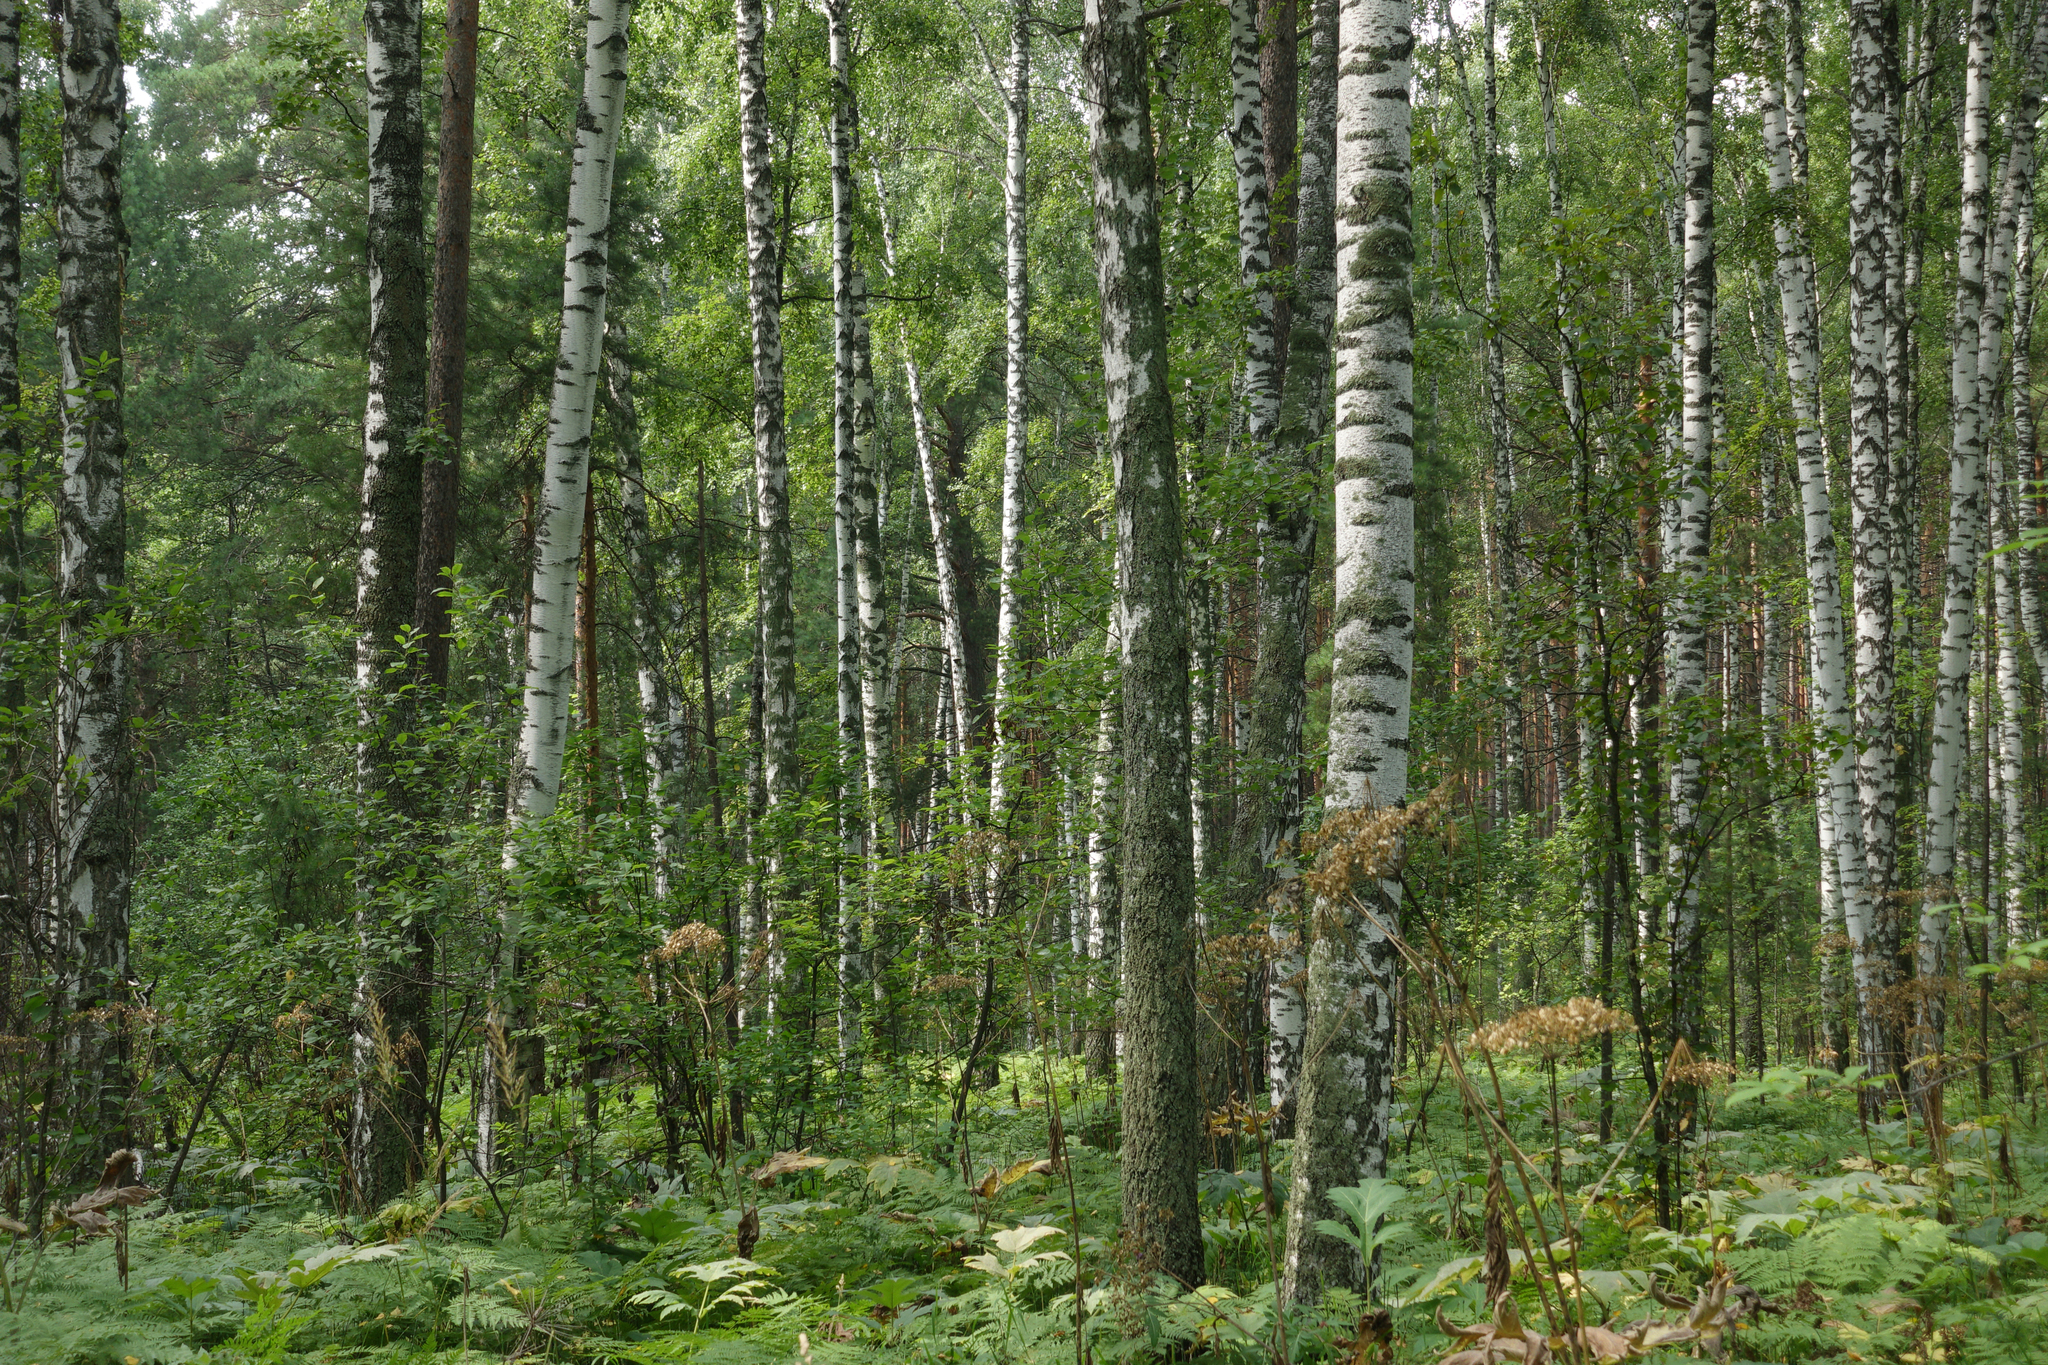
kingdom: Plantae
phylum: Tracheophyta
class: Magnoliopsida
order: Fagales
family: Betulaceae
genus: Betula
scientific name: Betula pendula
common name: Silver birch
